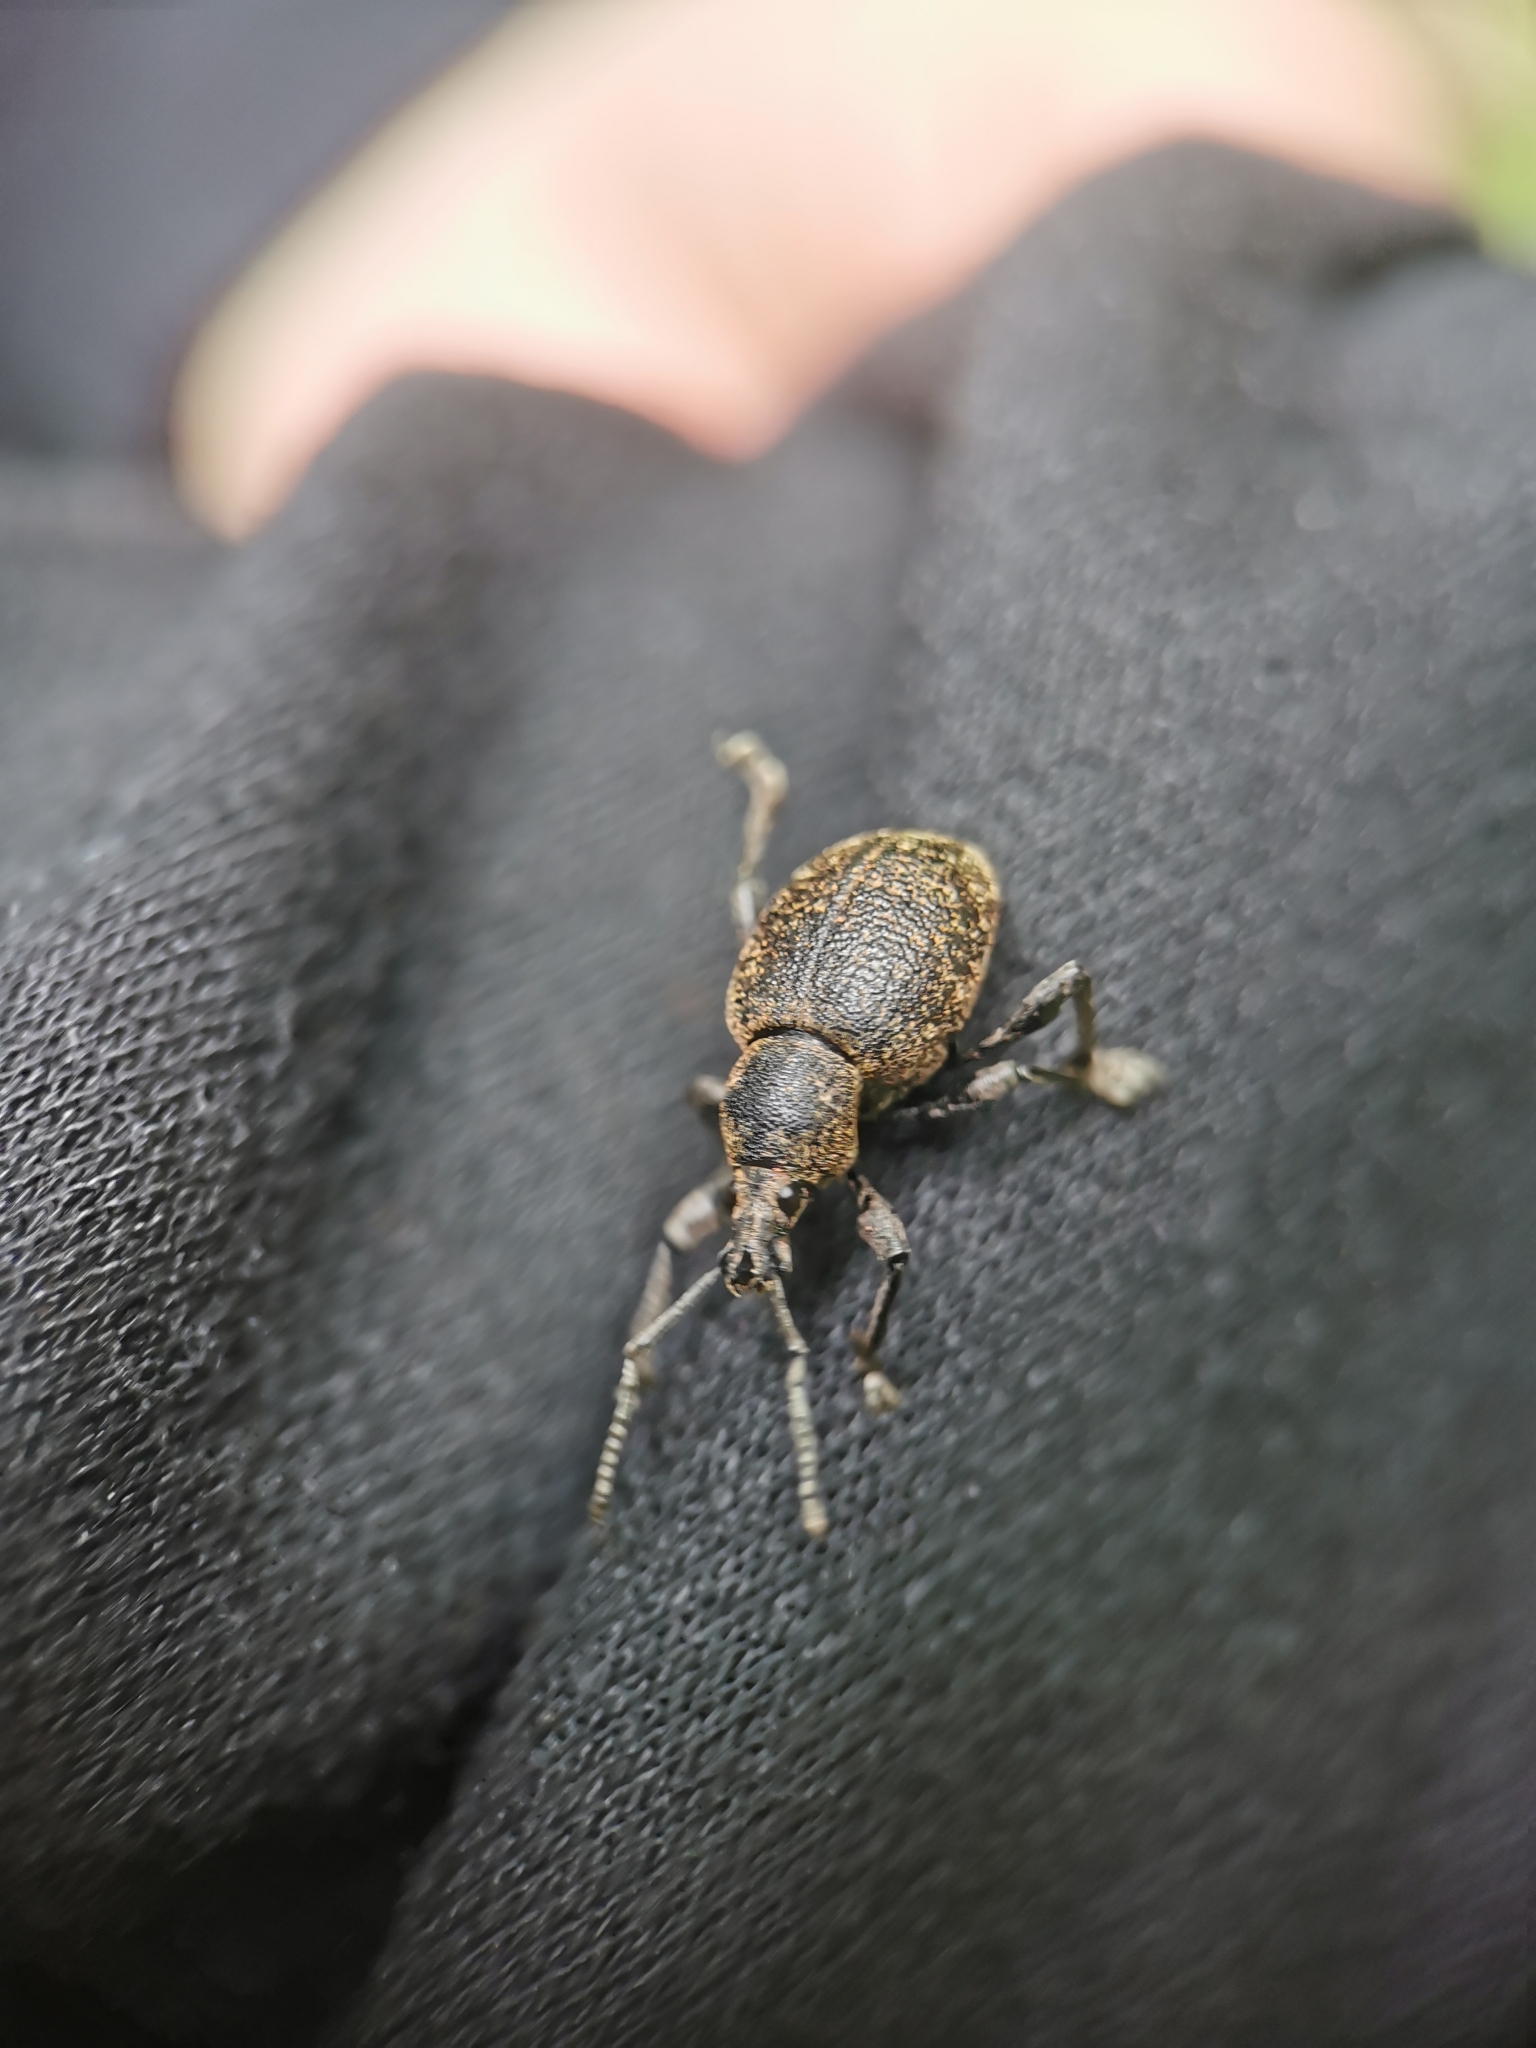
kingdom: Animalia
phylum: Arthropoda
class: Insecta
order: Coleoptera
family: Curculionidae
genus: Otiorhynchus
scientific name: Otiorhynchus armadillo
